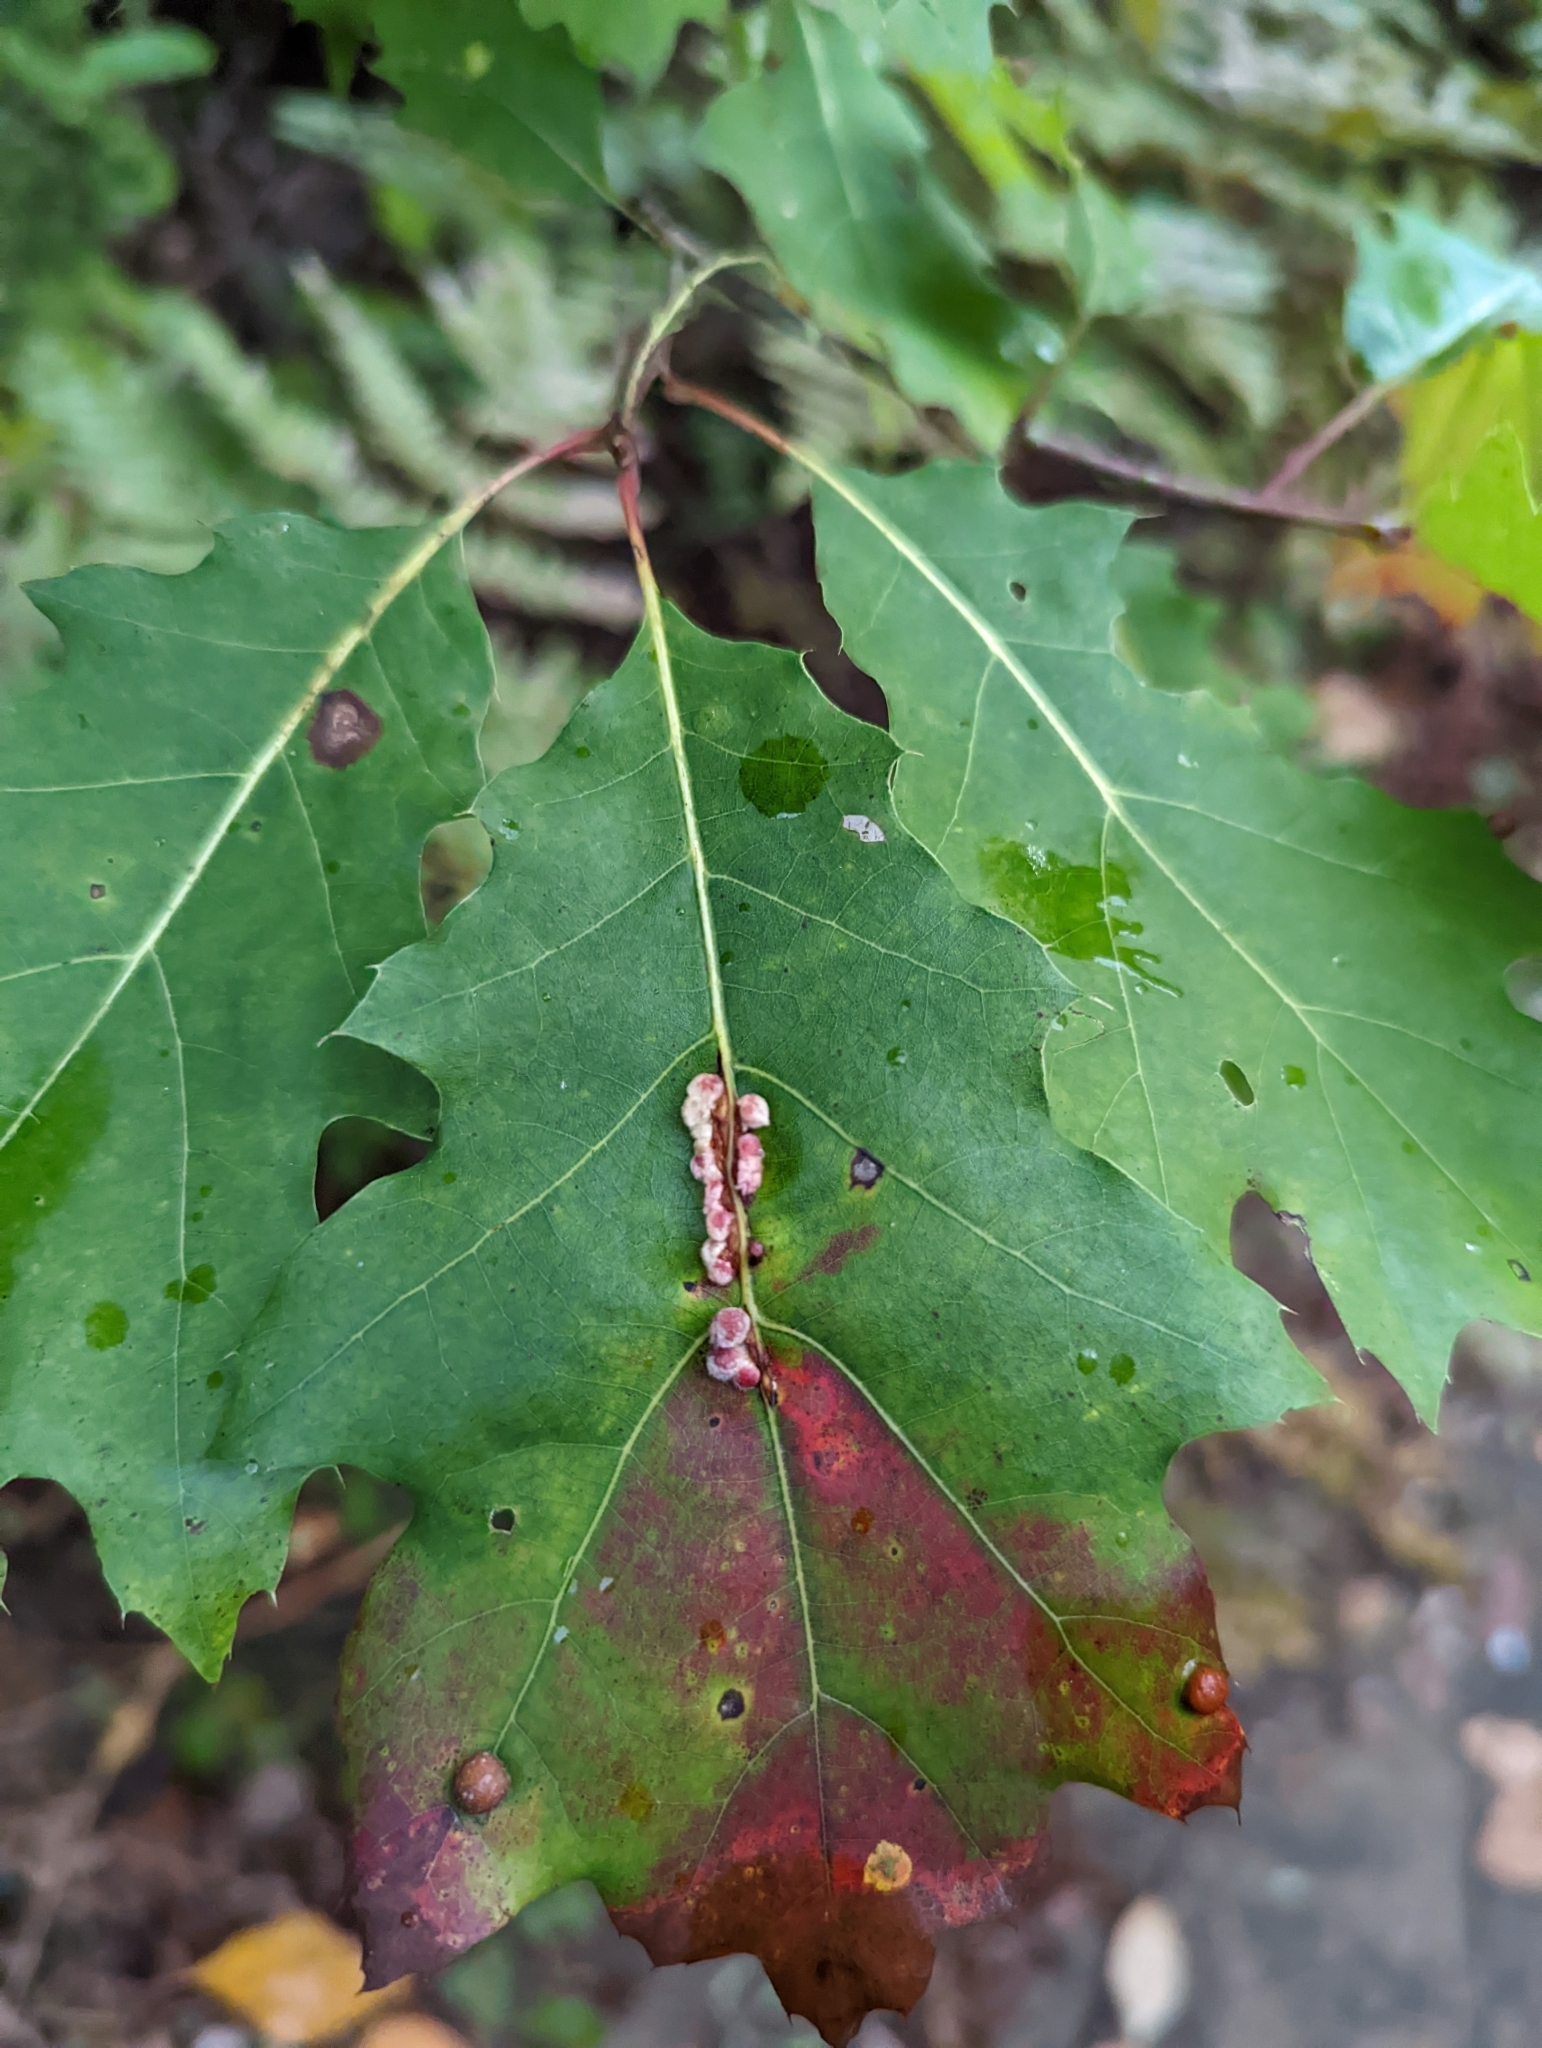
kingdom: Animalia
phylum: Arthropoda
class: Insecta
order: Hymenoptera
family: Cynipidae
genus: Callirhytis
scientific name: Callirhytis
